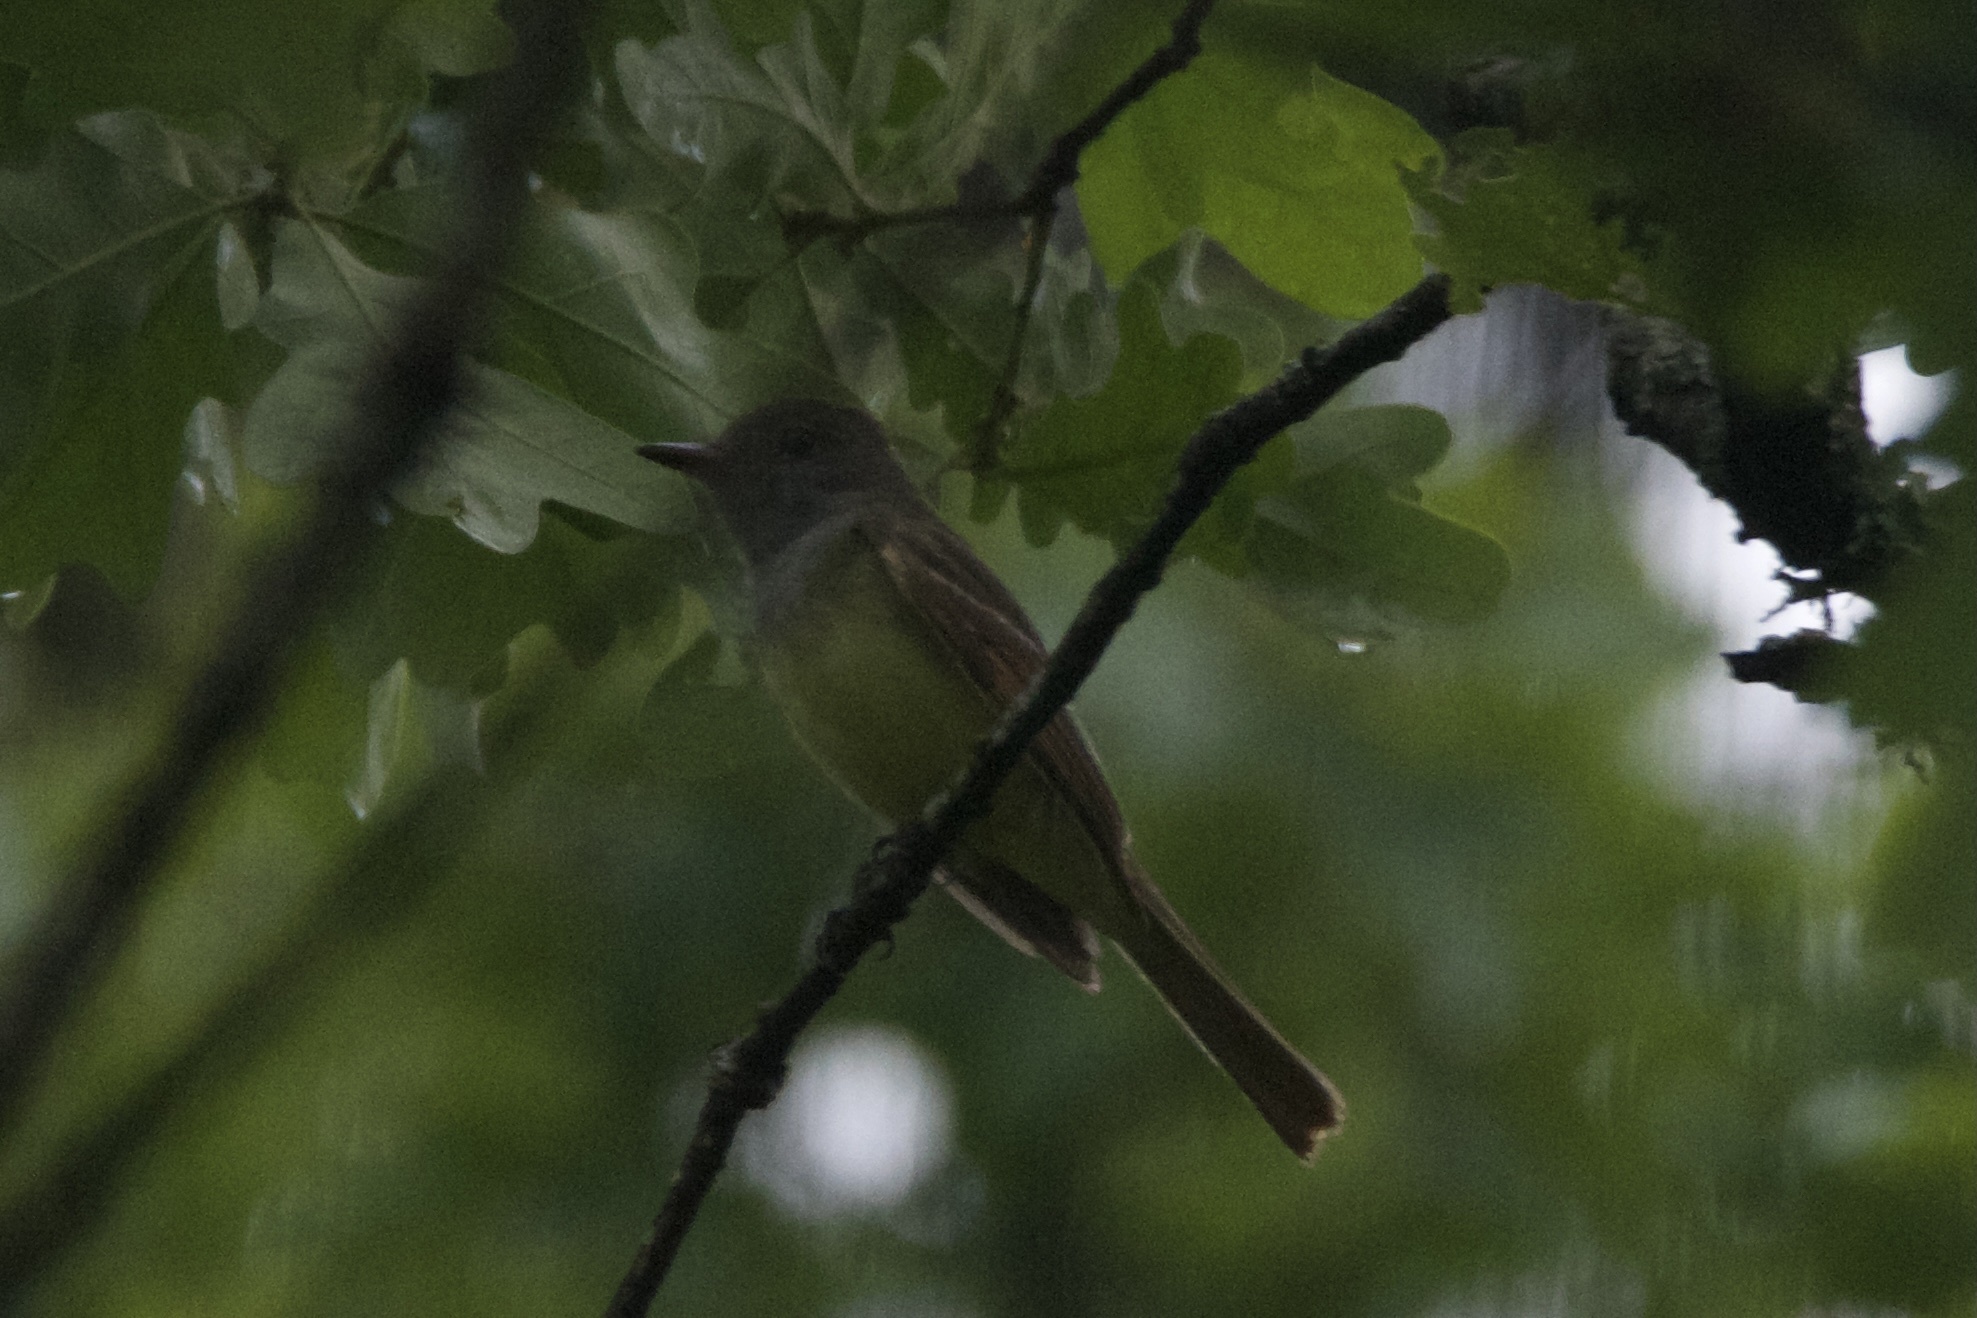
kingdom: Animalia
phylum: Chordata
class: Aves
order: Passeriformes
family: Tyrannidae
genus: Myiarchus
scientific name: Myiarchus crinitus
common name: Great crested flycatcher
